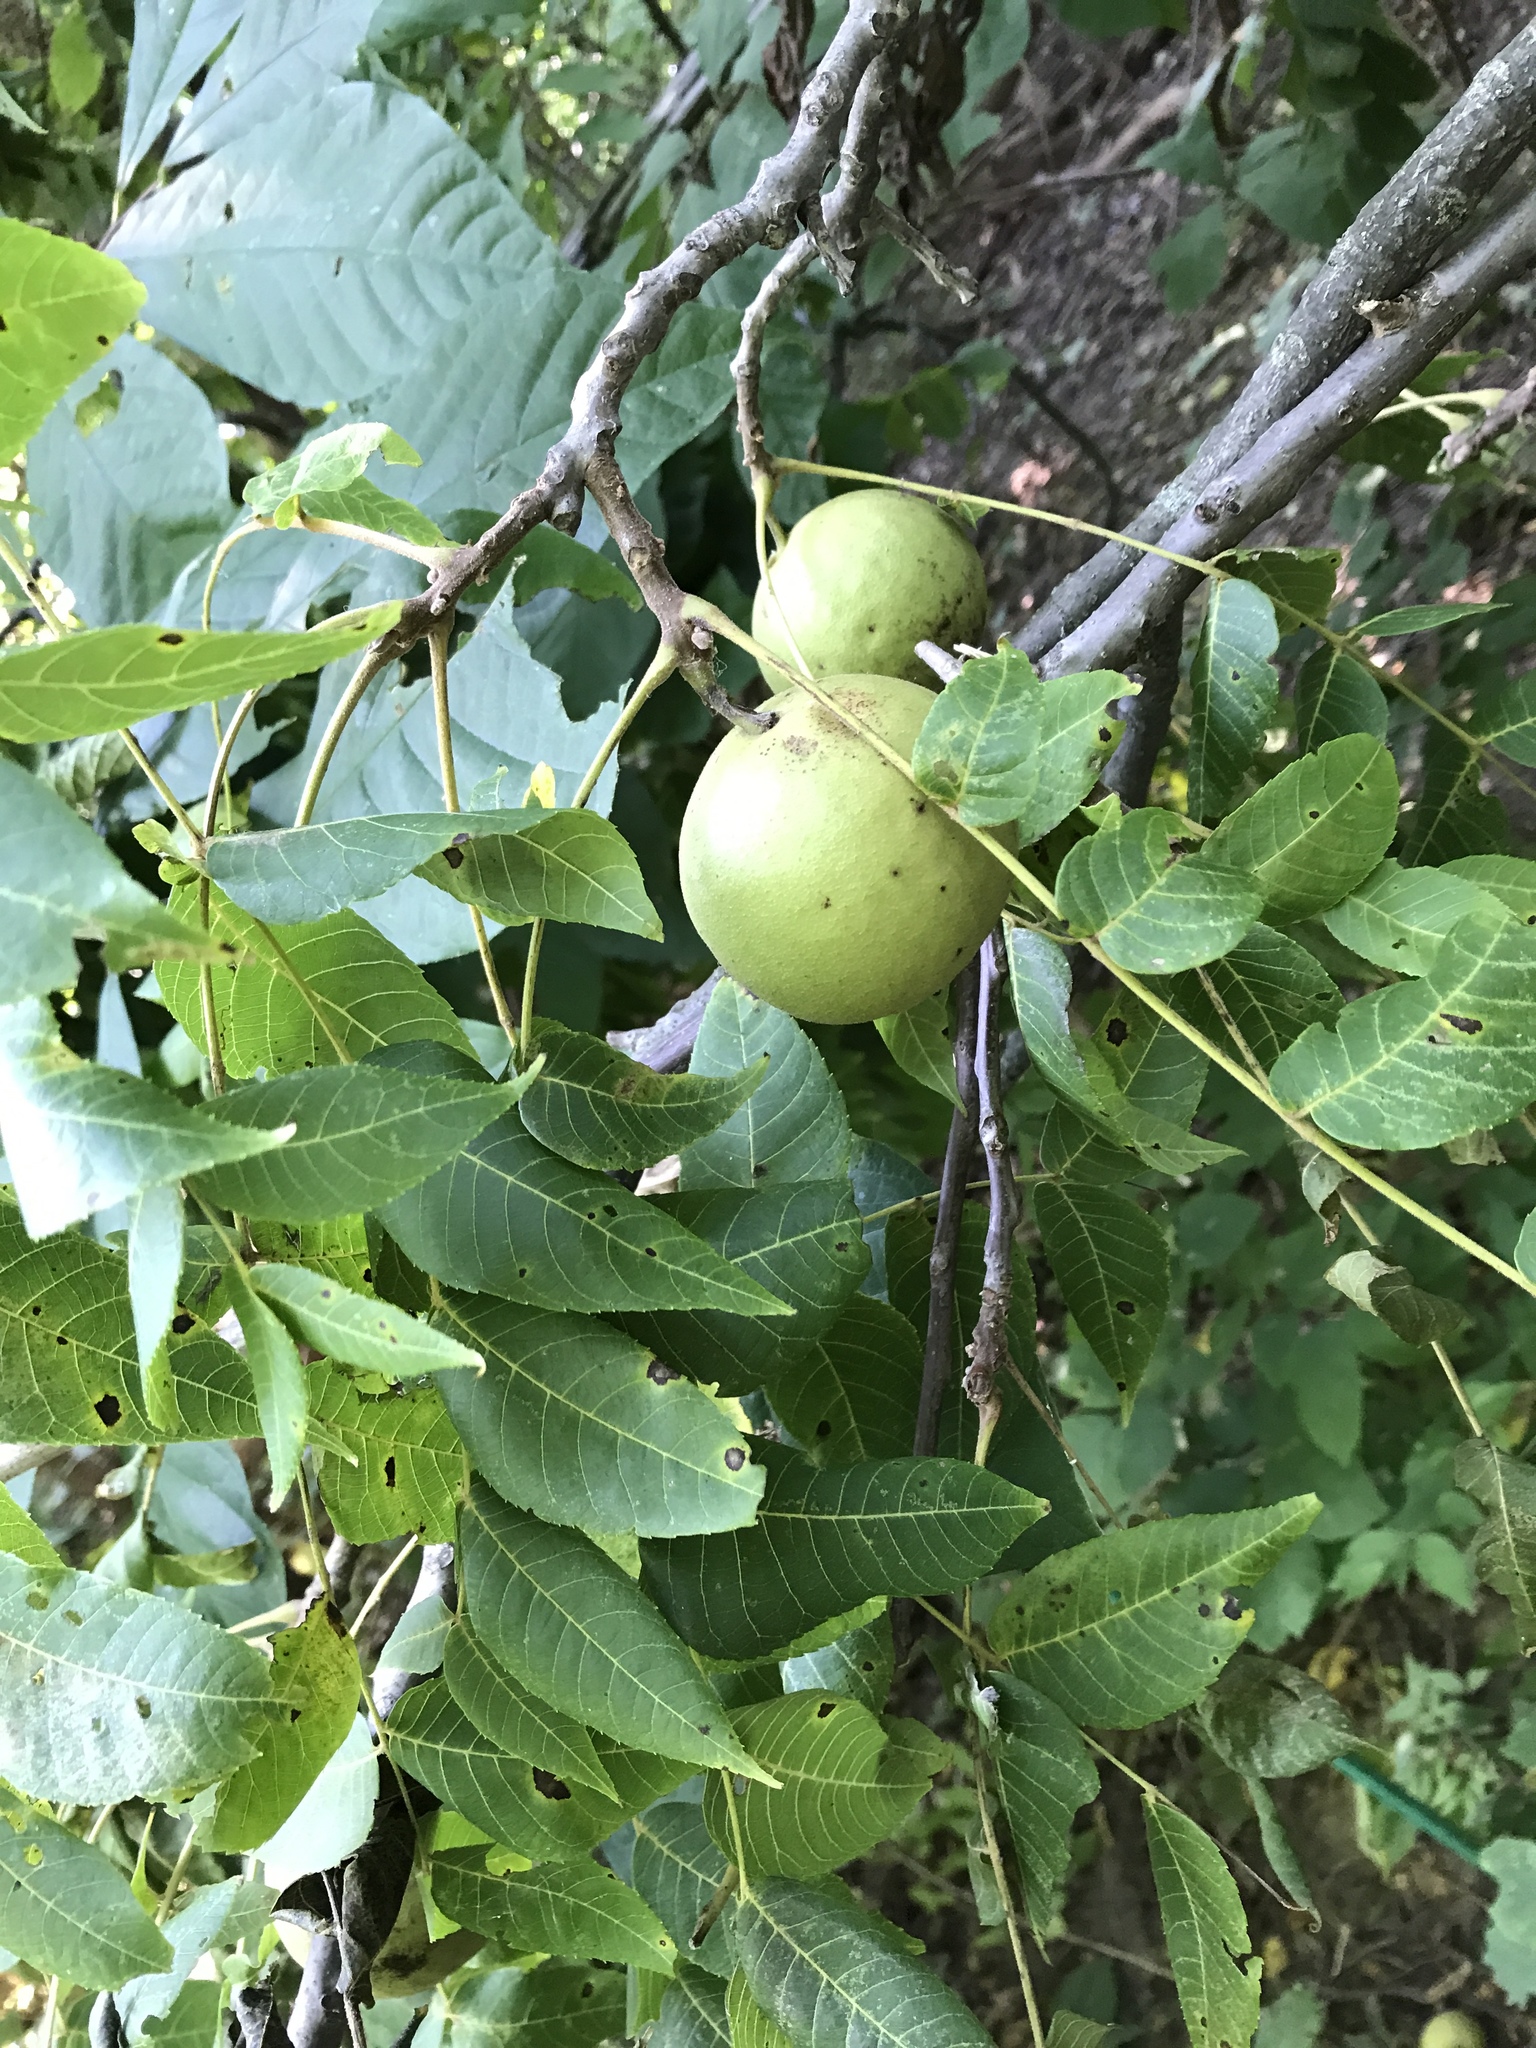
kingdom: Plantae
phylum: Tracheophyta
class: Magnoliopsida
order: Fagales
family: Juglandaceae
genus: Juglans
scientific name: Juglans nigra
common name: Black walnut
